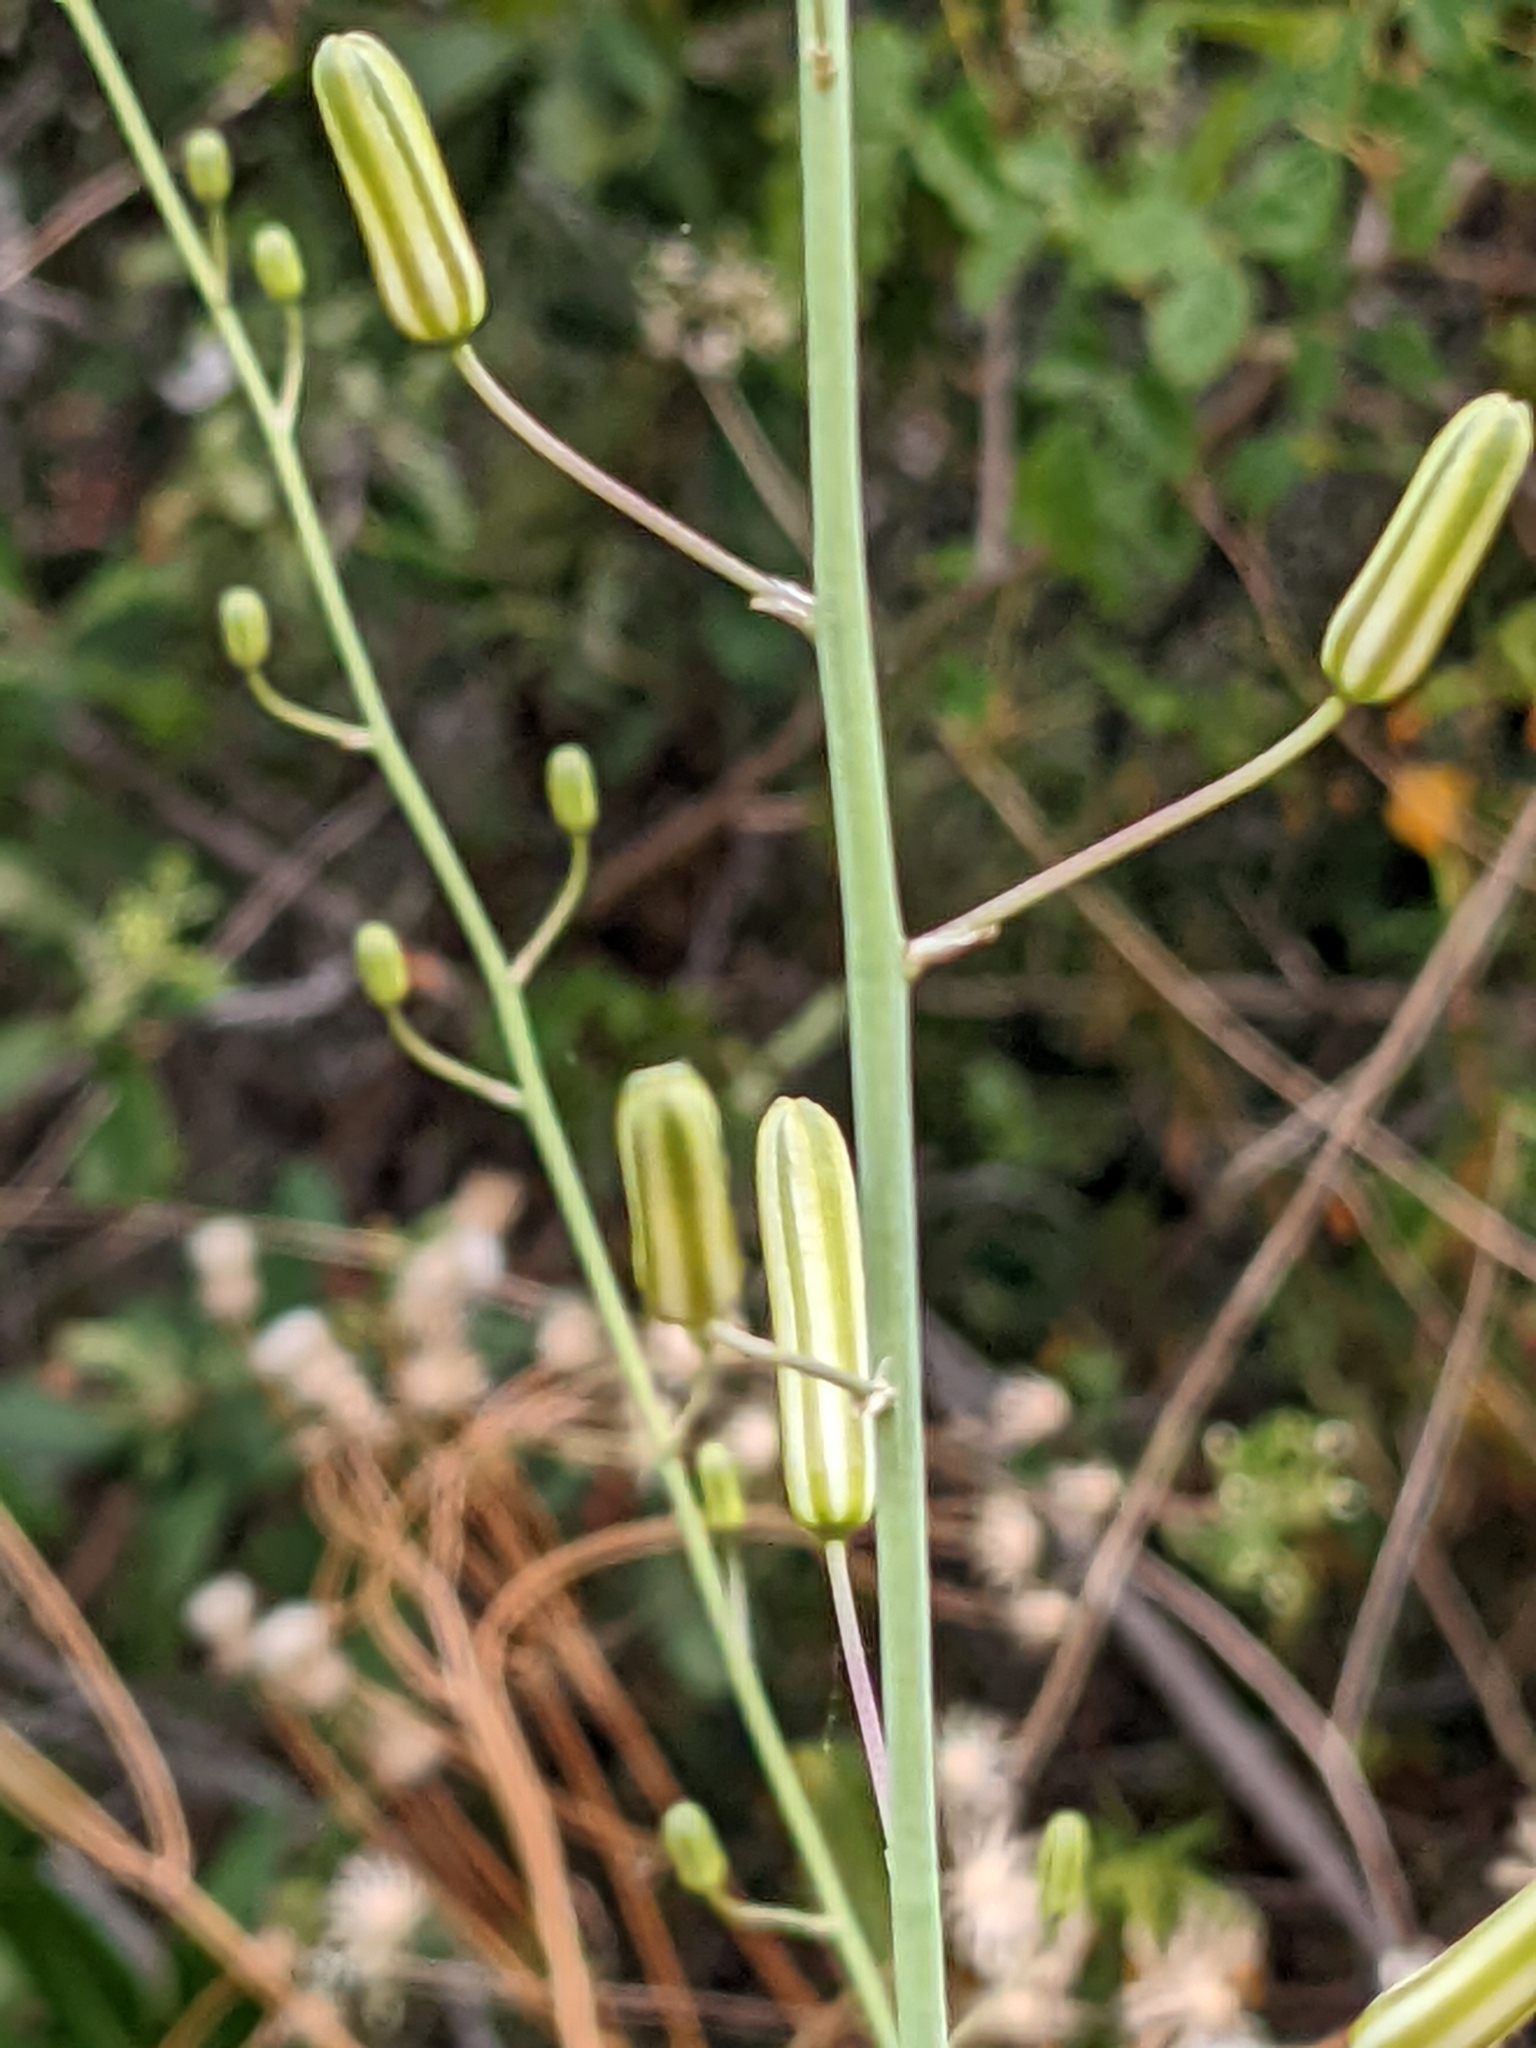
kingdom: Plantae
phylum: Tracheophyta
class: Liliopsida
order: Asparagales
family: Asparagaceae
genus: Chlorogalum
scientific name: Chlorogalum pomeridianum
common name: Amole
